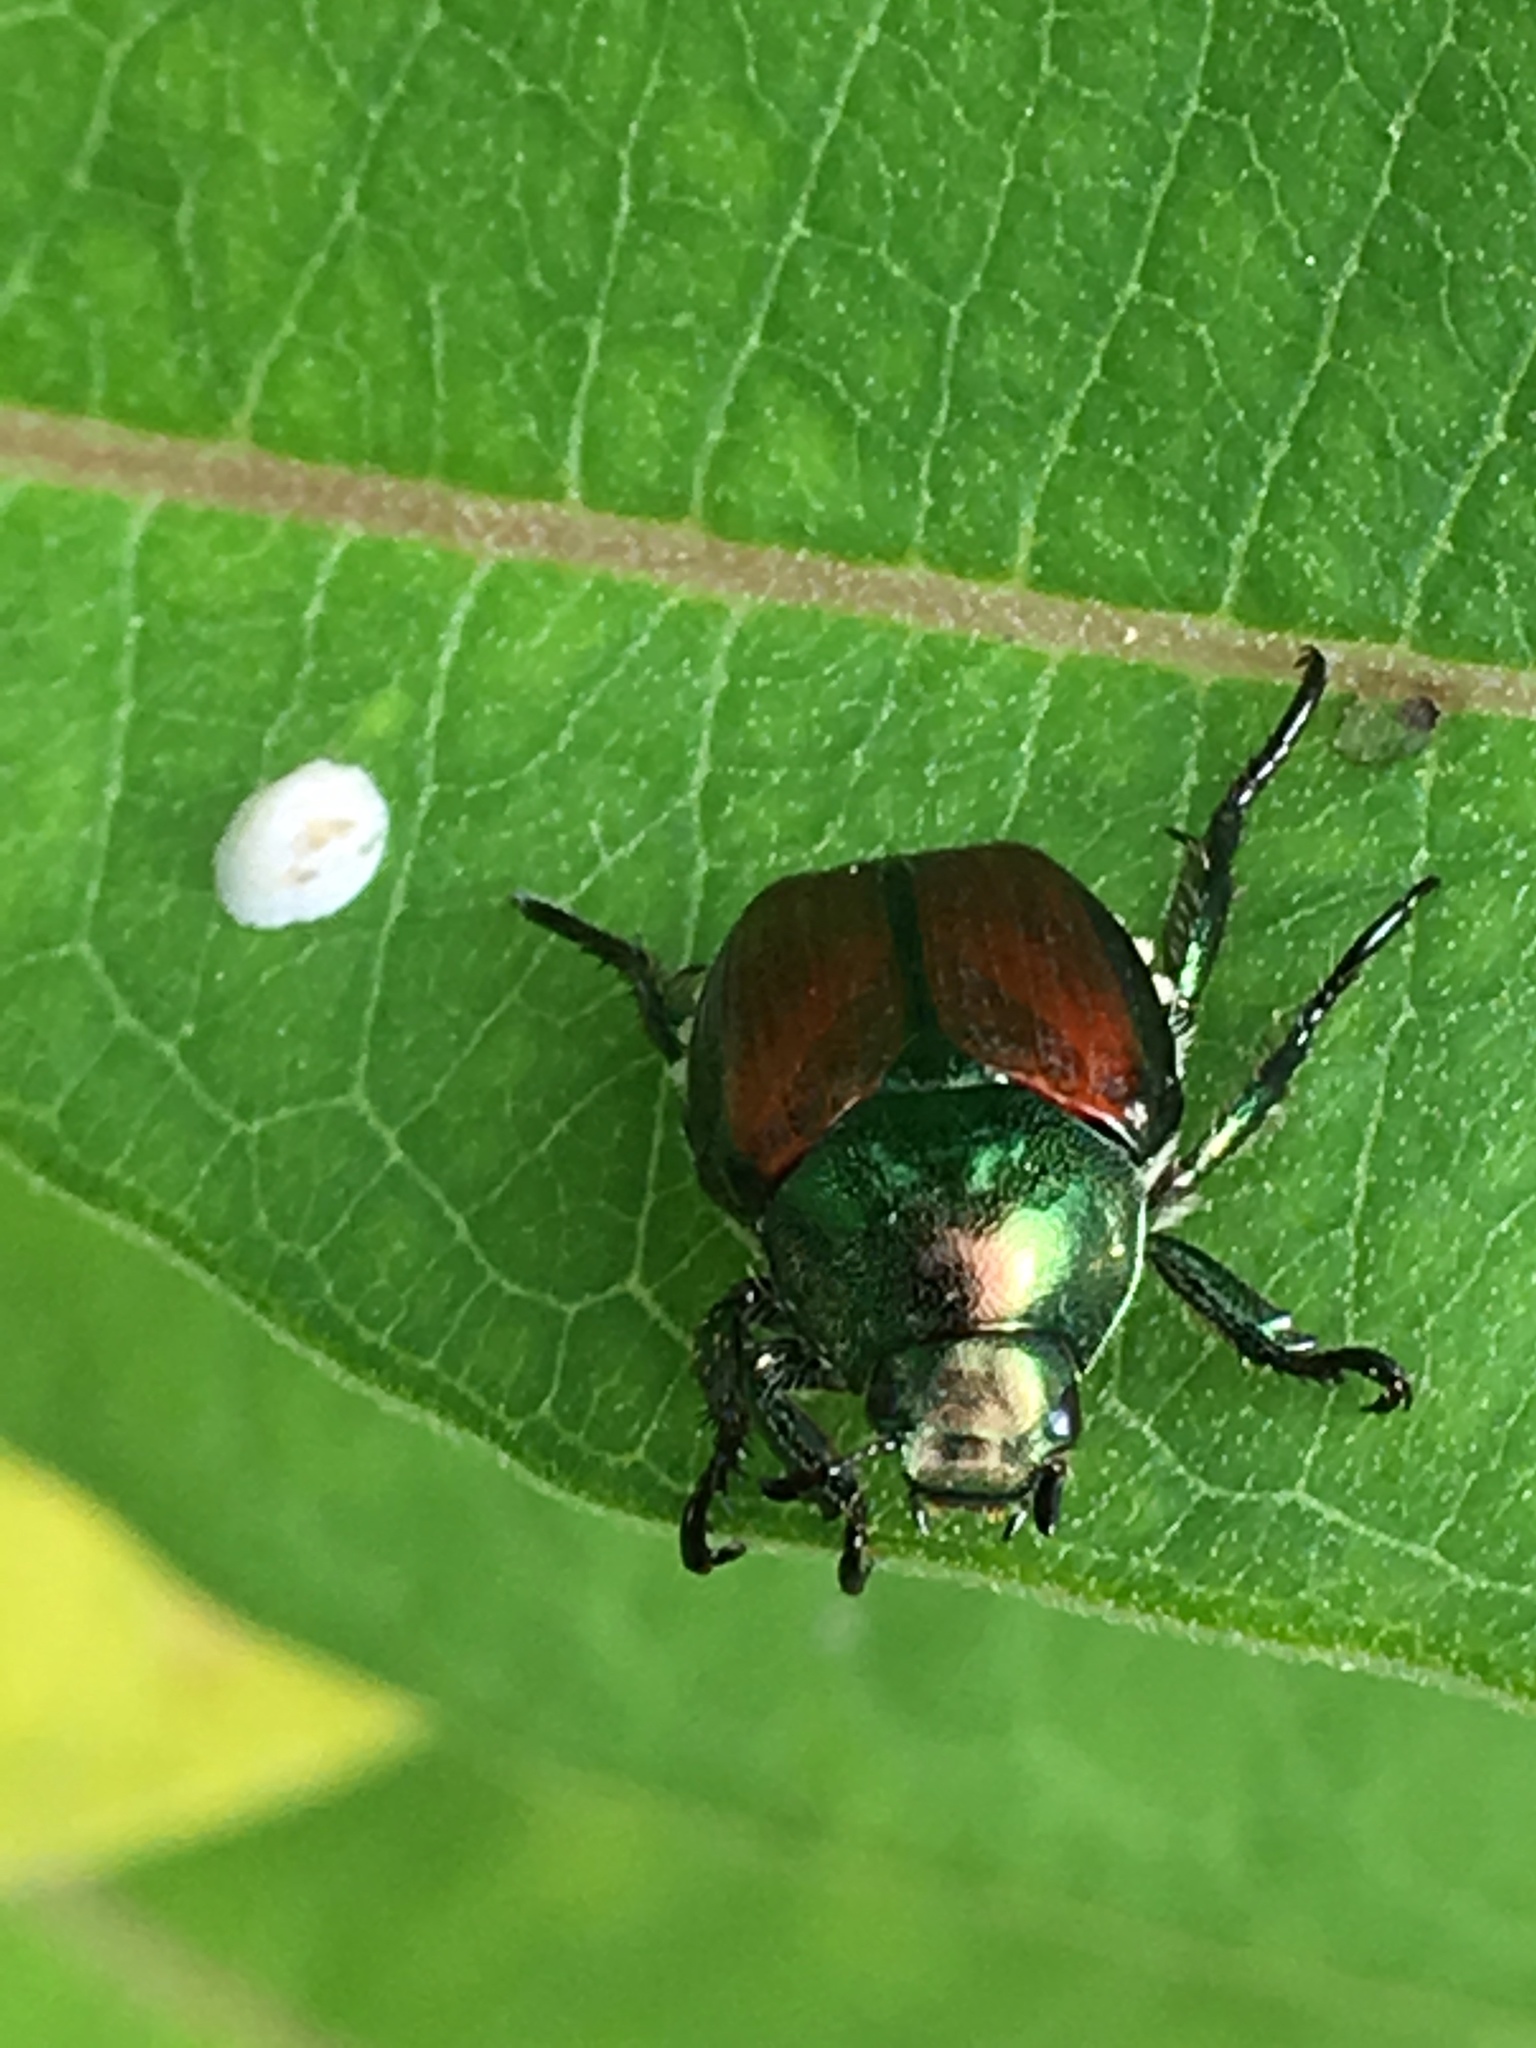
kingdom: Animalia
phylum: Arthropoda
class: Insecta
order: Coleoptera
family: Scarabaeidae
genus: Popillia
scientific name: Popillia japonica
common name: Japanese beetle
